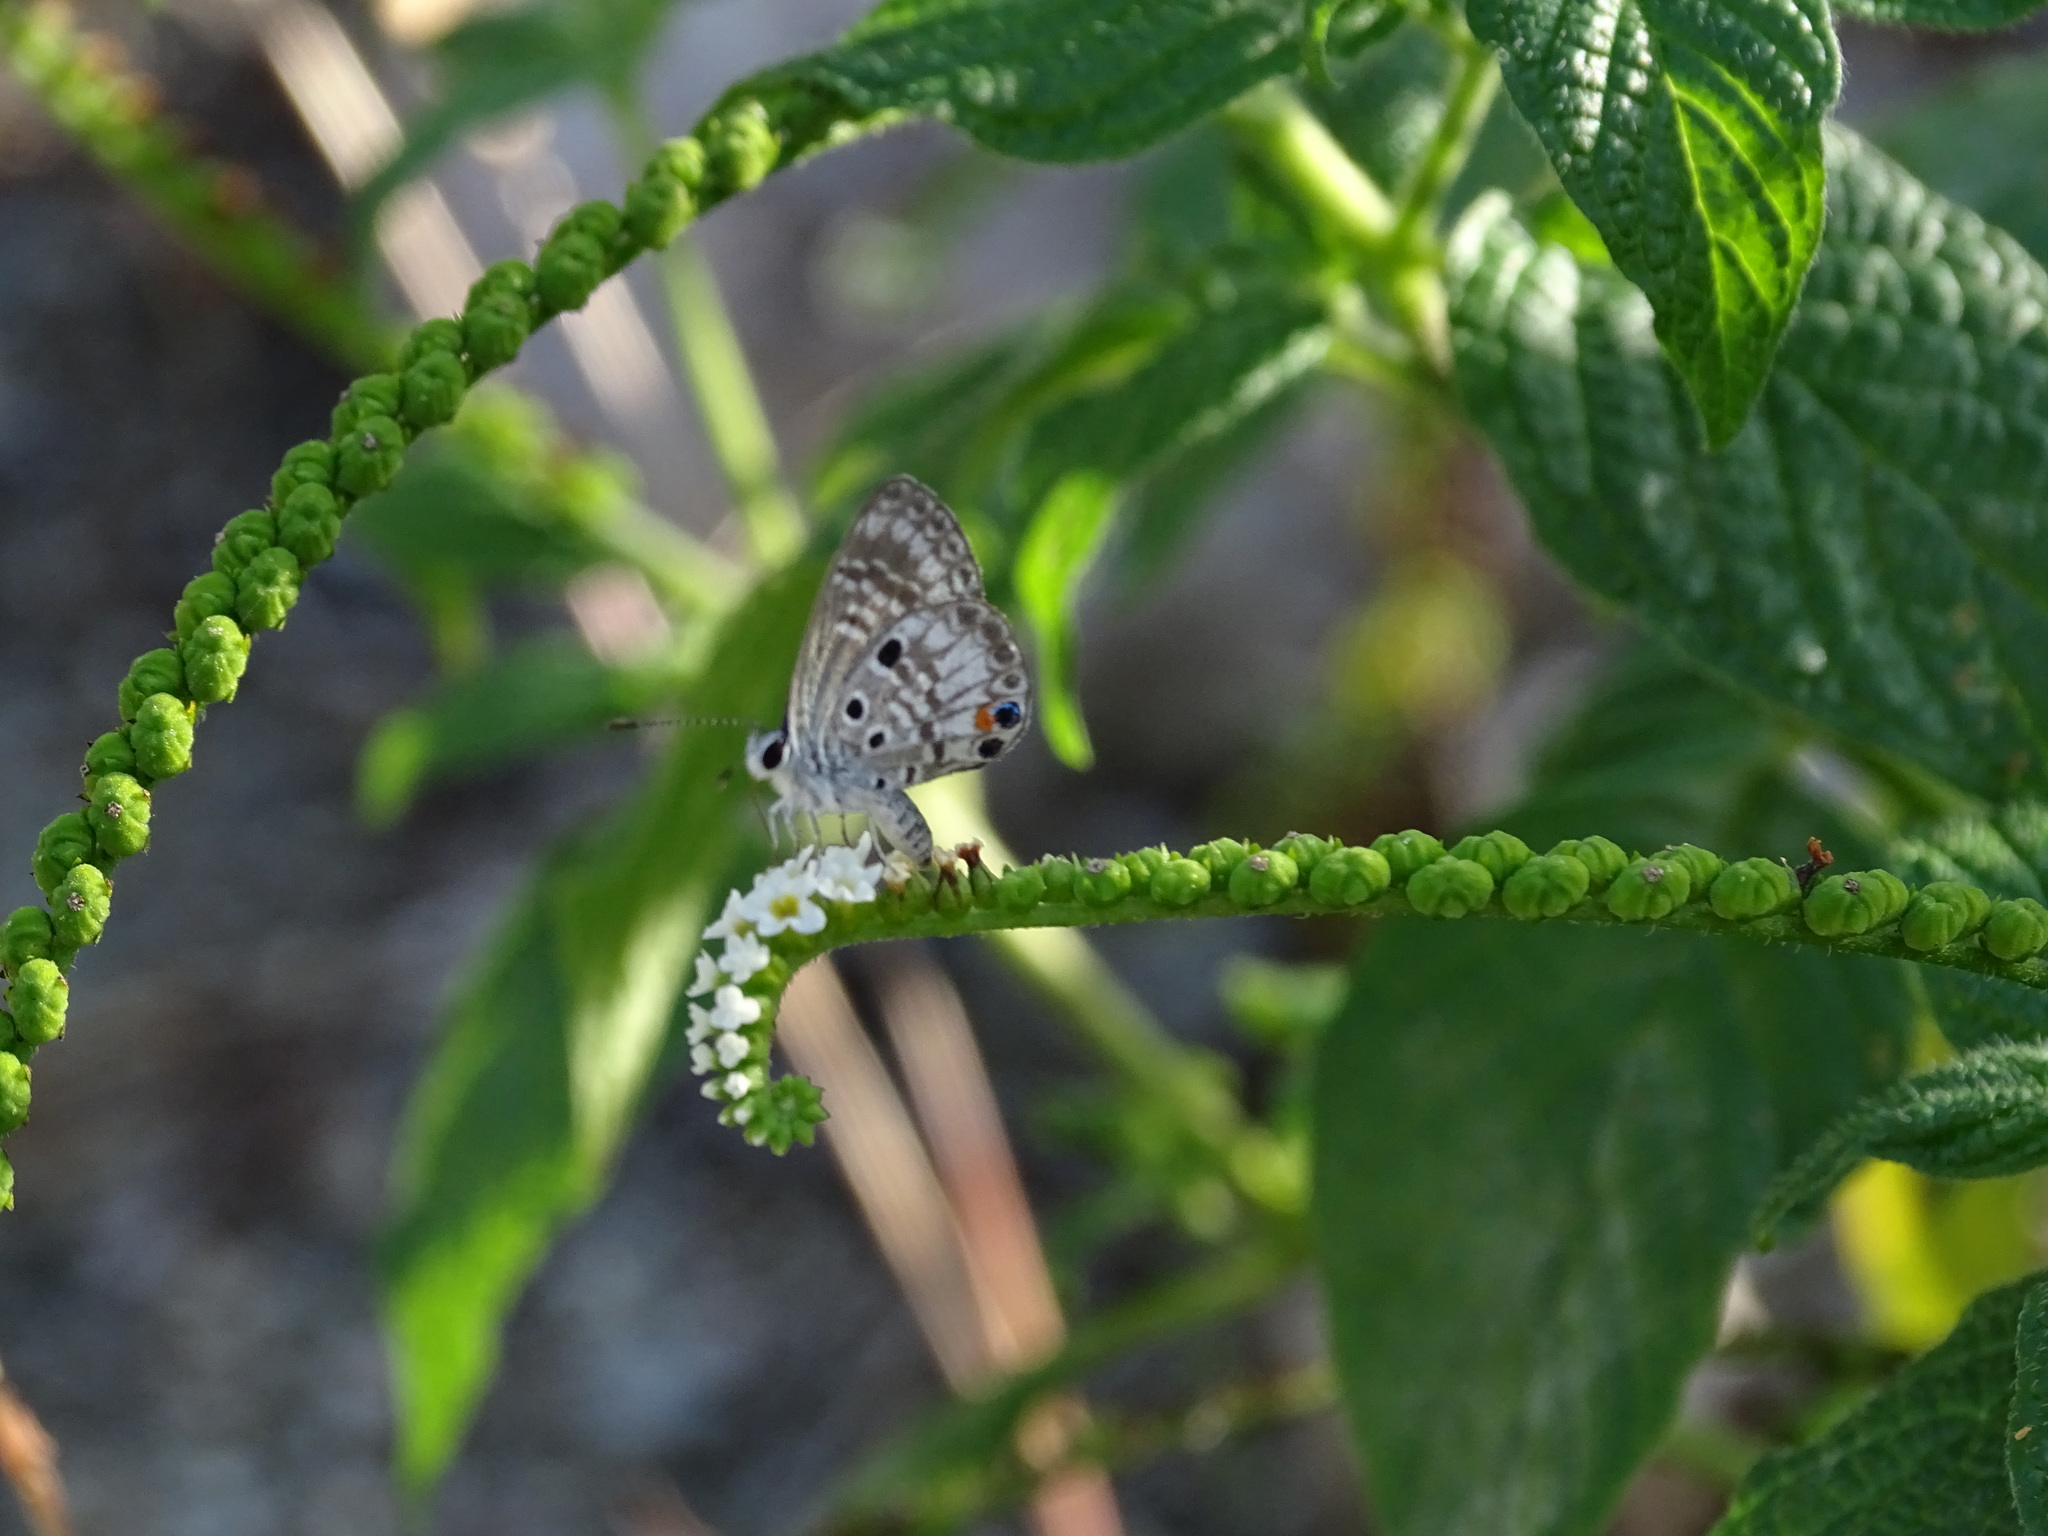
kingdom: Animalia
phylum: Arthropoda
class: Insecta
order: Lepidoptera
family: Lycaenidae
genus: Cyclargus
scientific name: Cyclargus ammon
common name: Blue butterfly
